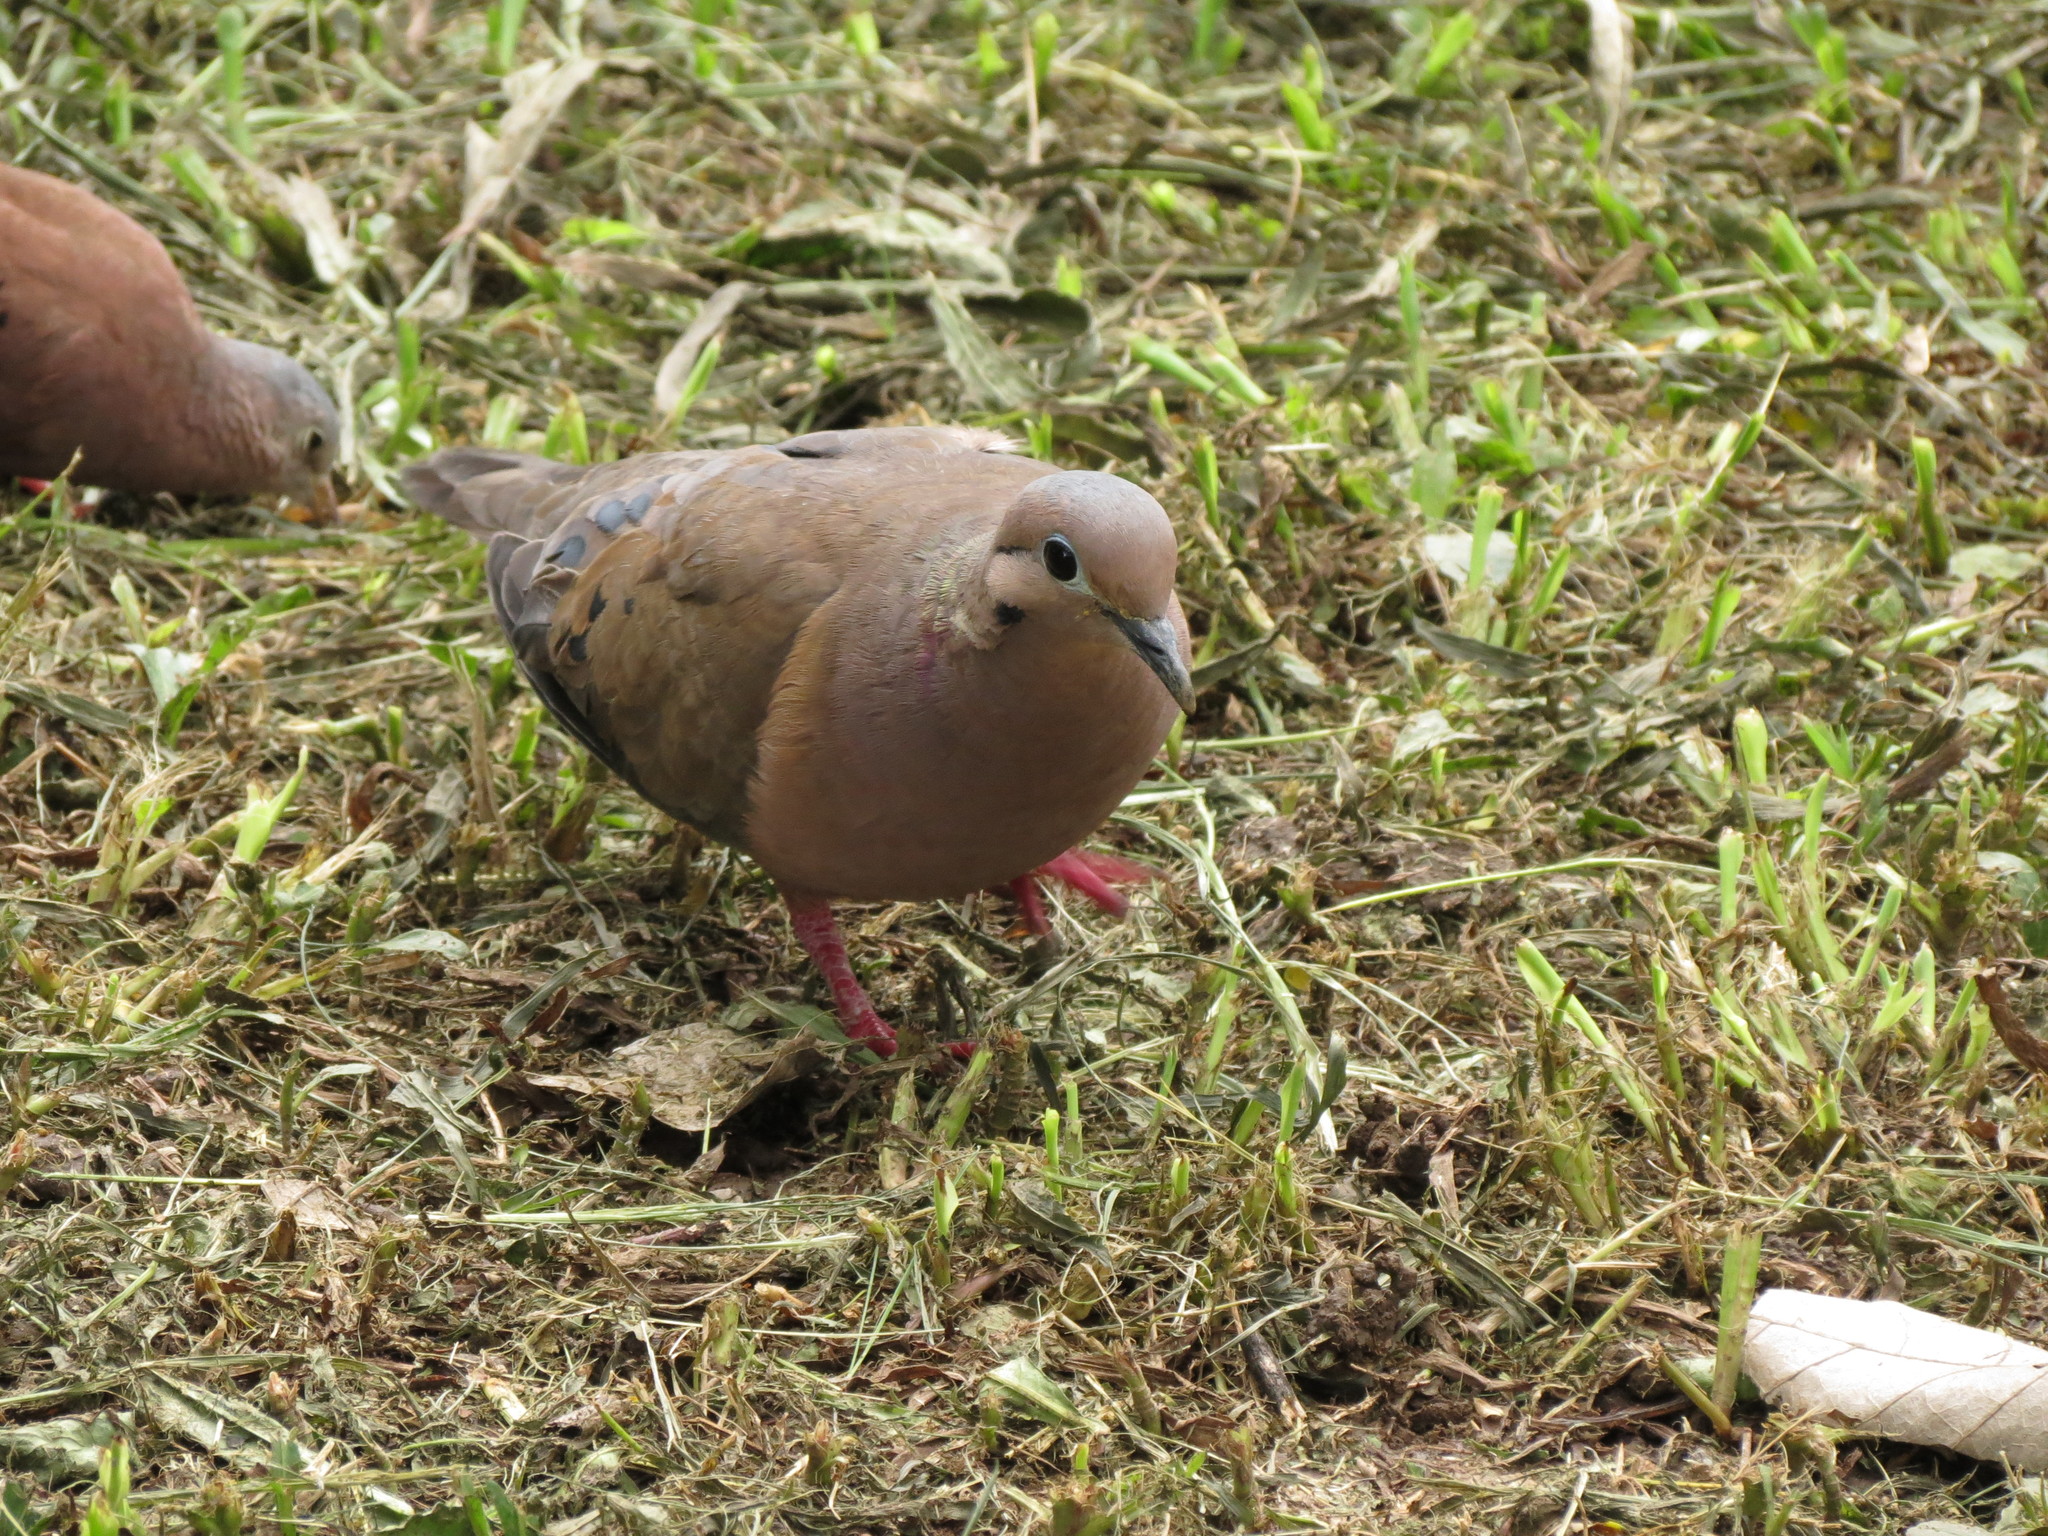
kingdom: Animalia
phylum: Chordata
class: Aves
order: Columbiformes
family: Columbidae
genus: Zenaida
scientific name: Zenaida auriculata
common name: Eared dove
